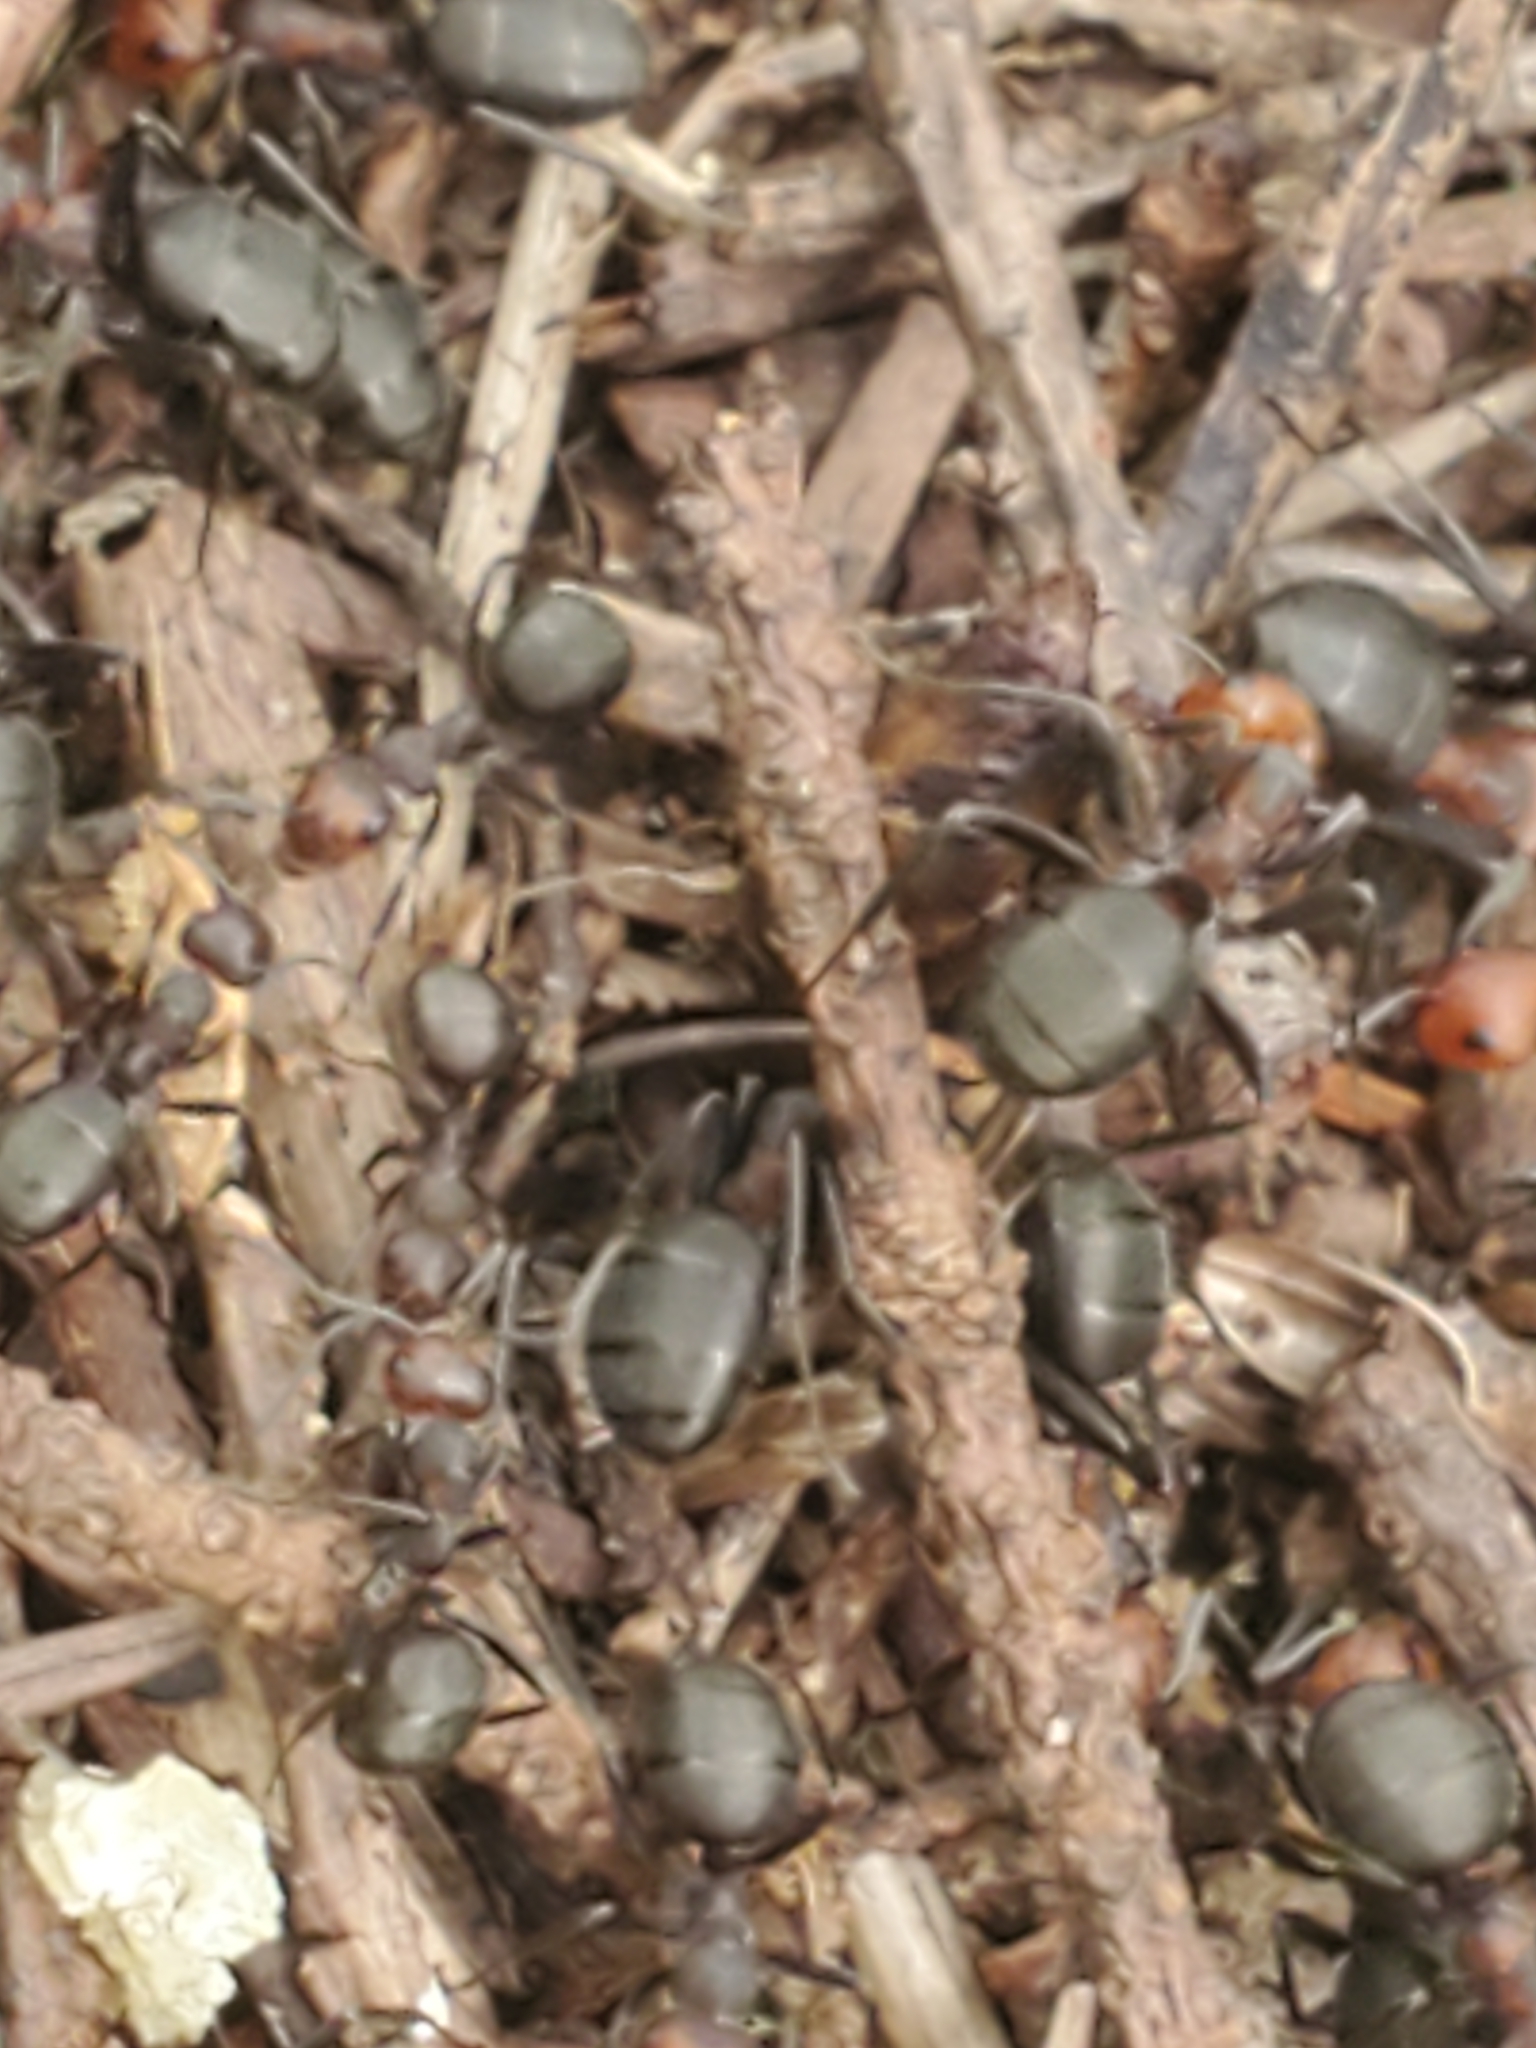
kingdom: Animalia
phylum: Arthropoda
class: Insecta
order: Hymenoptera
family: Formicidae
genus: Formica
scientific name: Formica obscuripes
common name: Western thatching ant
